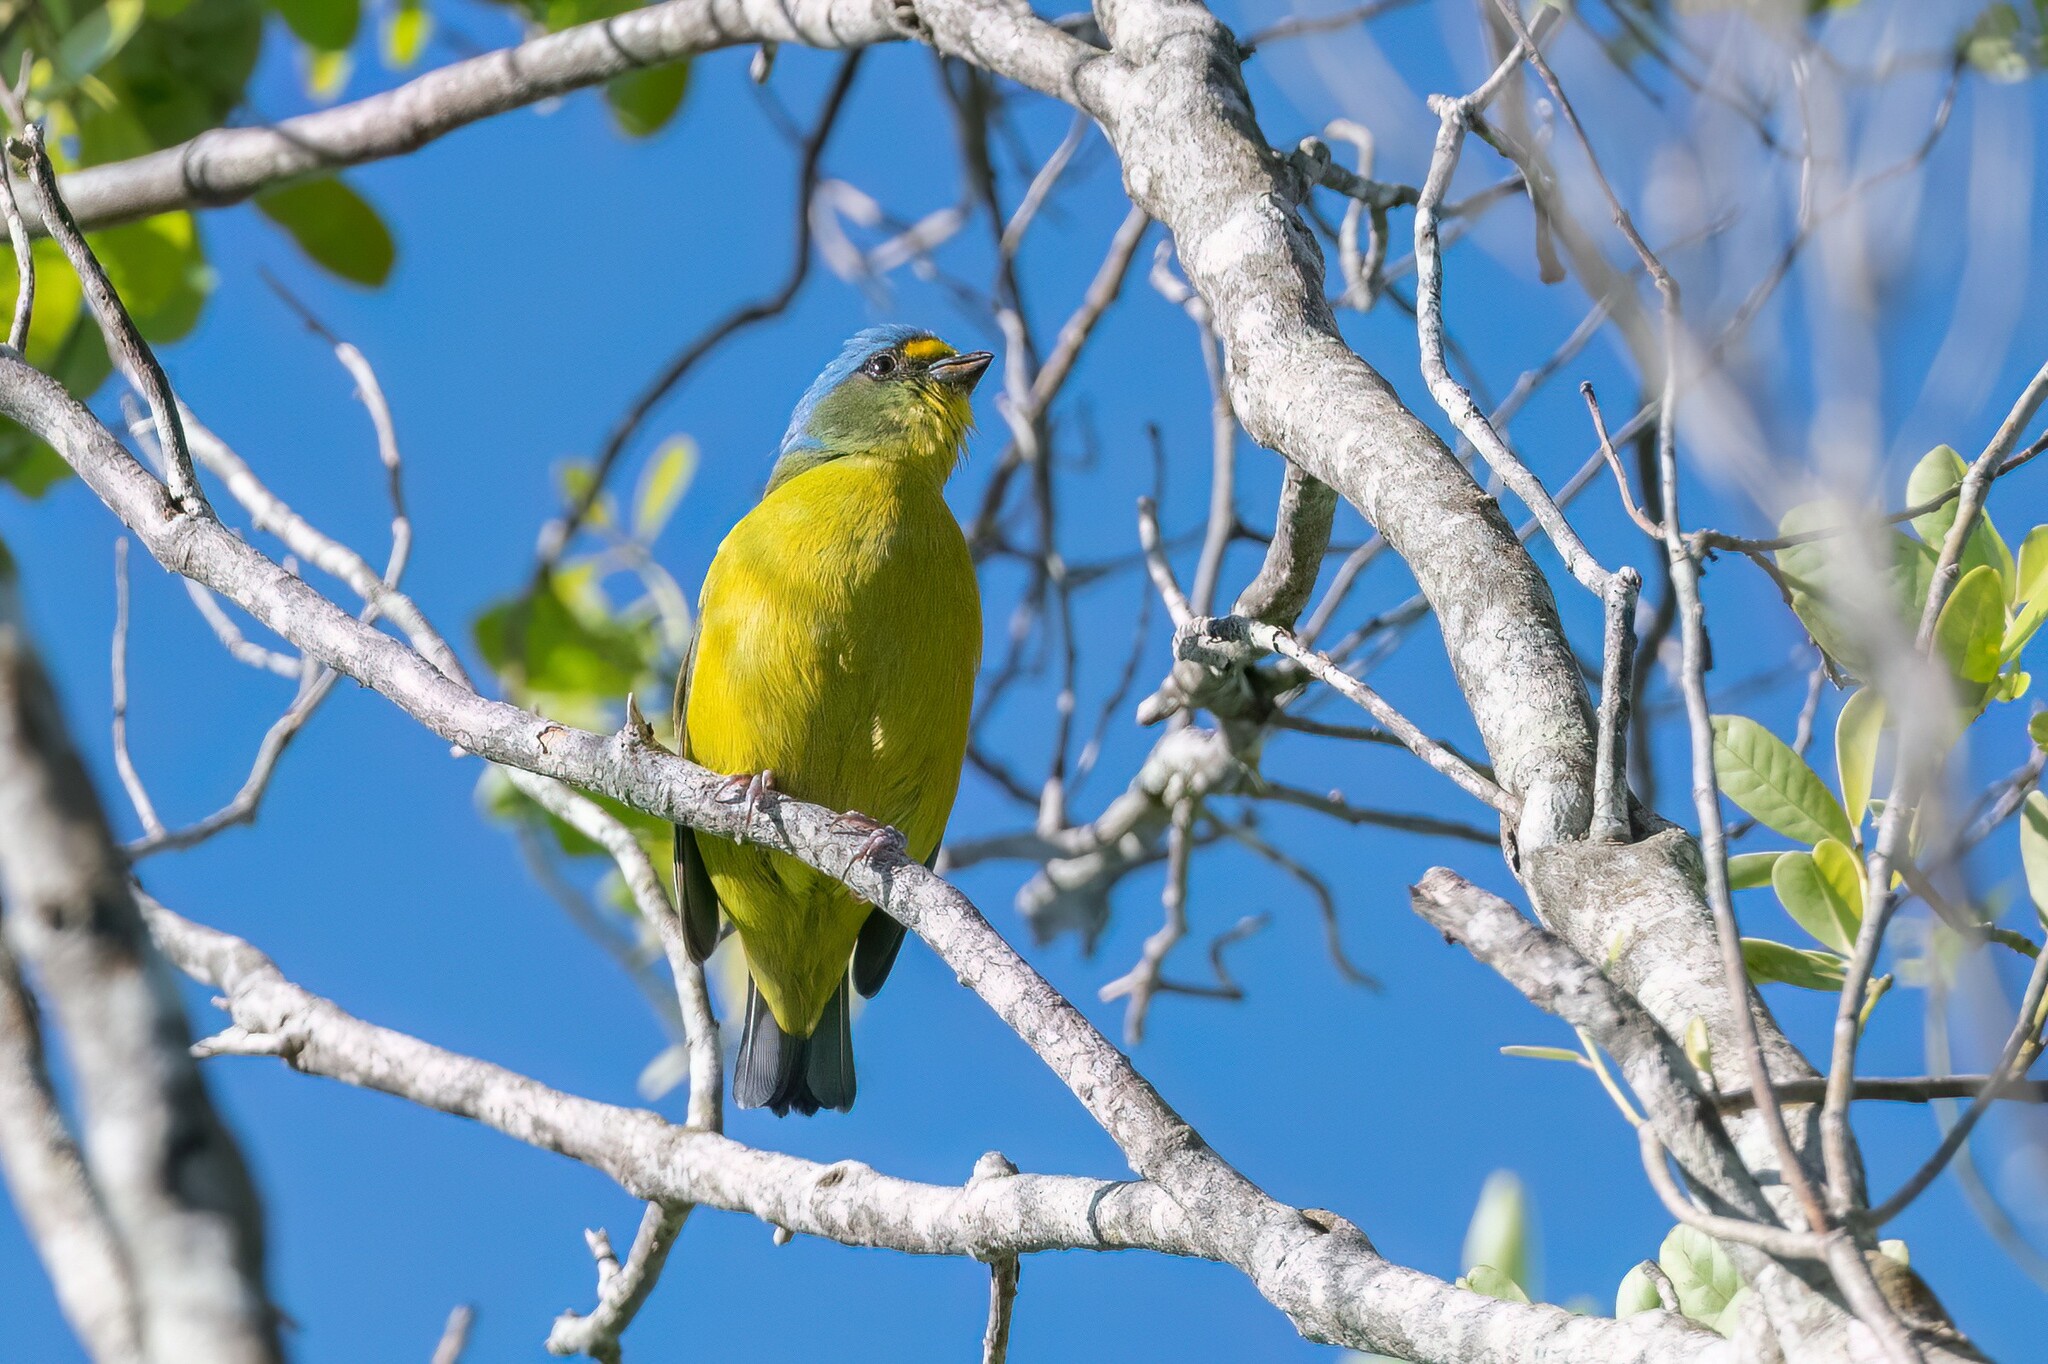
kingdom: Animalia
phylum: Chordata
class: Aves
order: Passeriformes
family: Fringillidae
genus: Euphonia
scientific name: Euphonia musica
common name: Antillean euphonia
